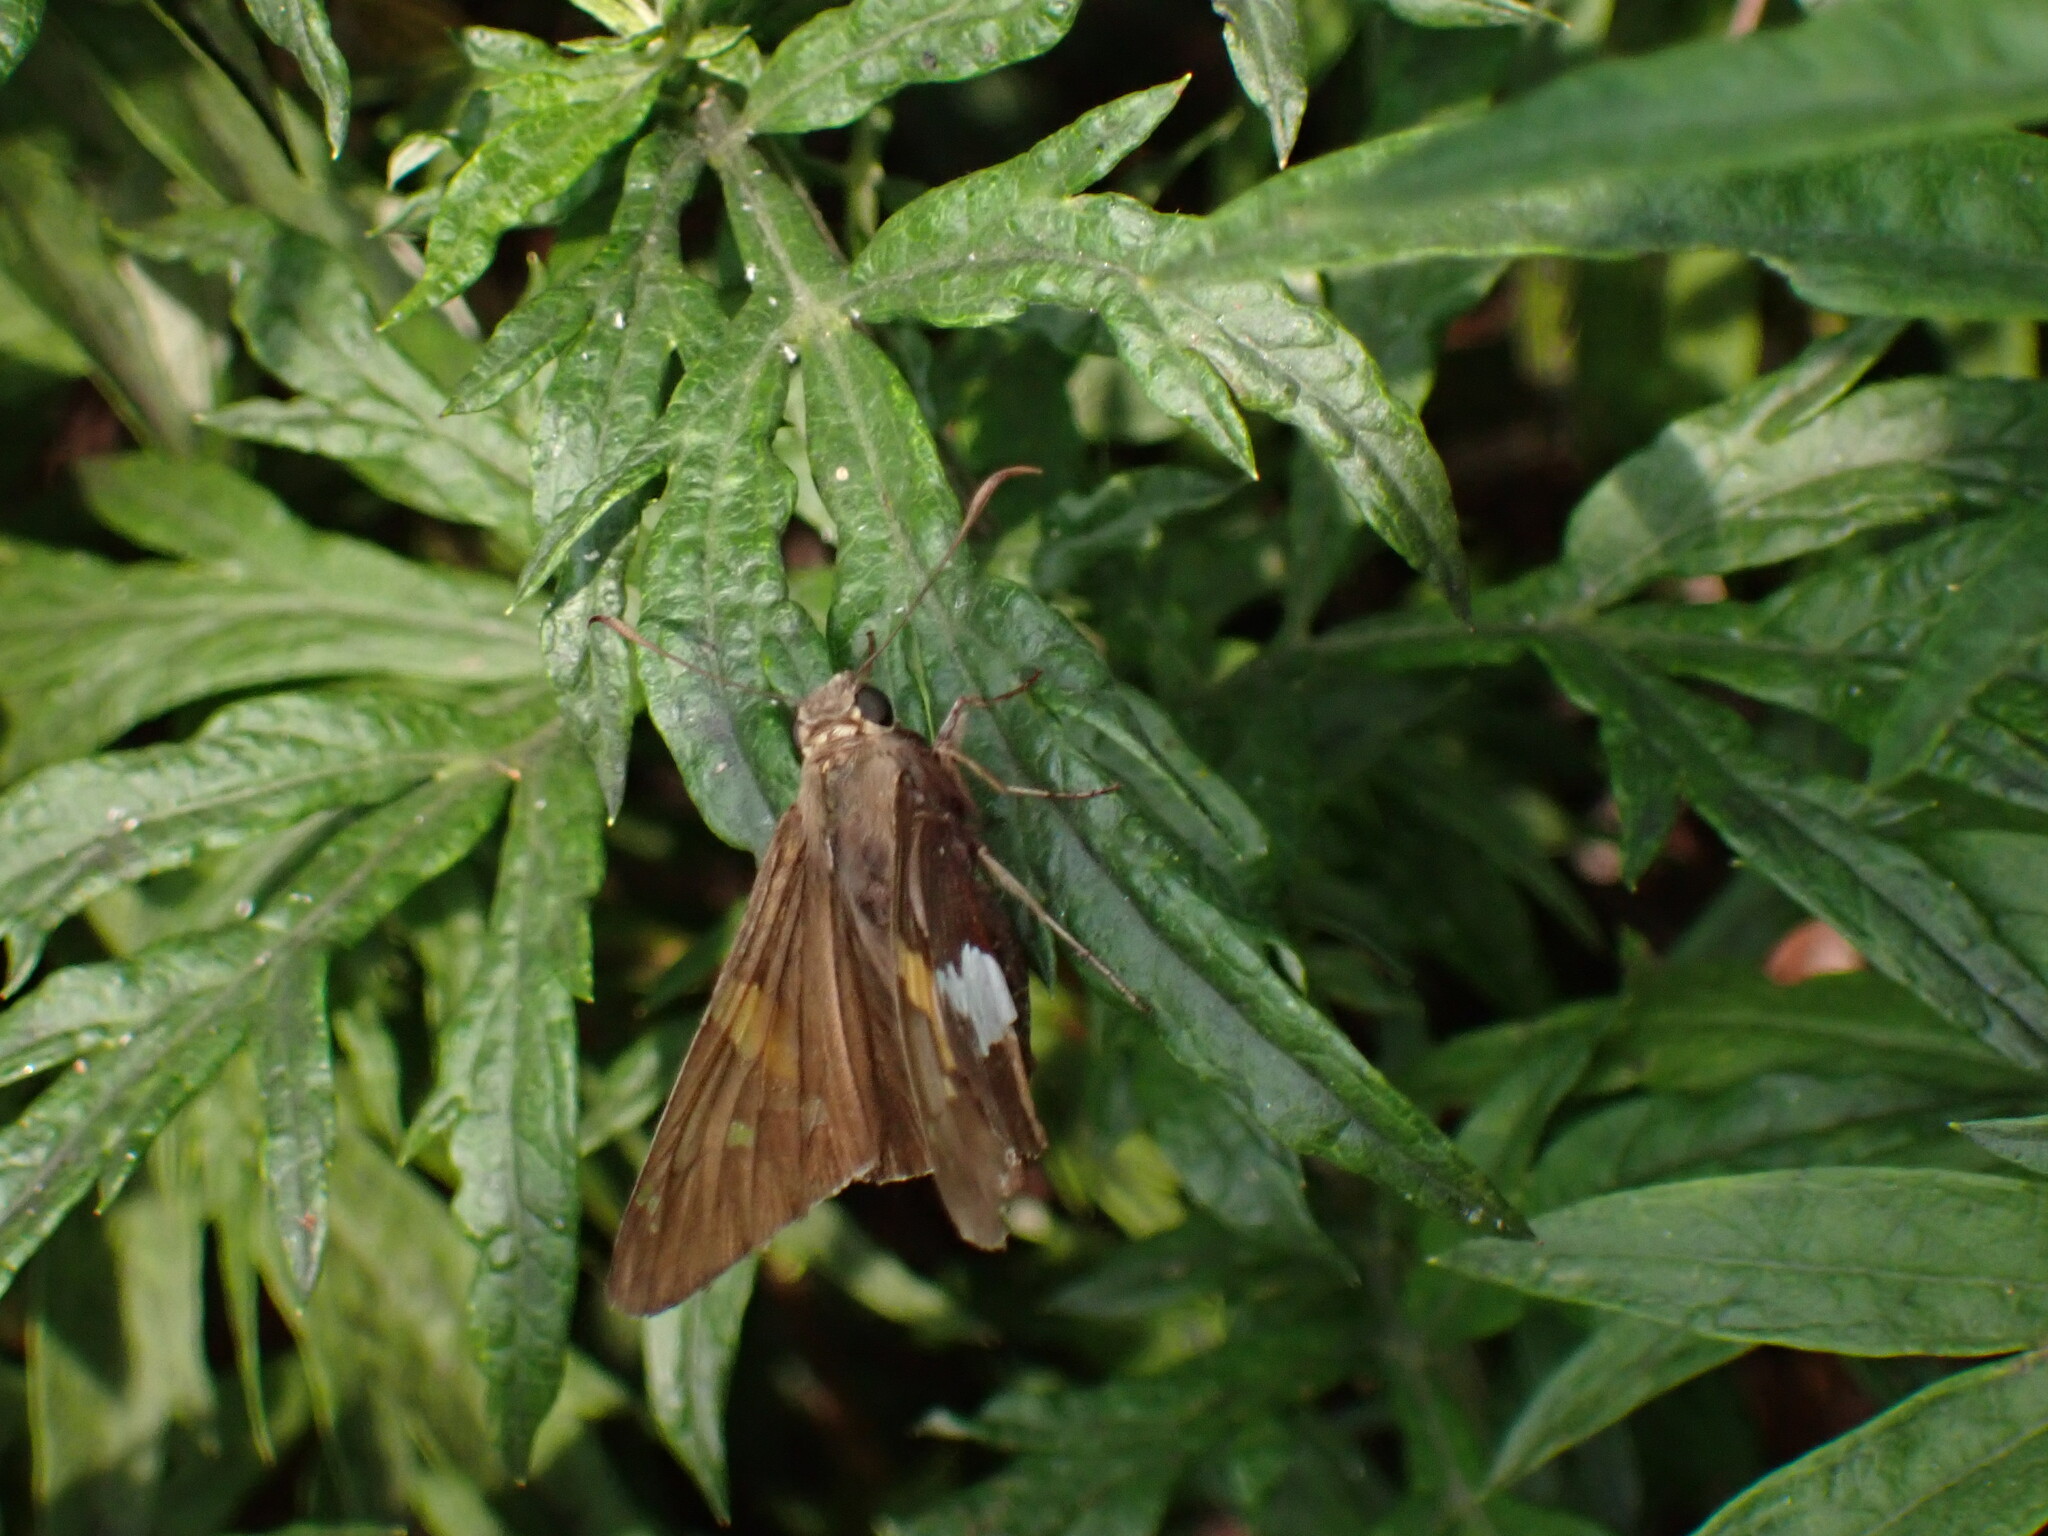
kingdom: Animalia
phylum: Arthropoda
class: Insecta
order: Lepidoptera
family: Hesperiidae
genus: Epargyreus
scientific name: Epargyreus clarus
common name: Silver-spotted skipper
